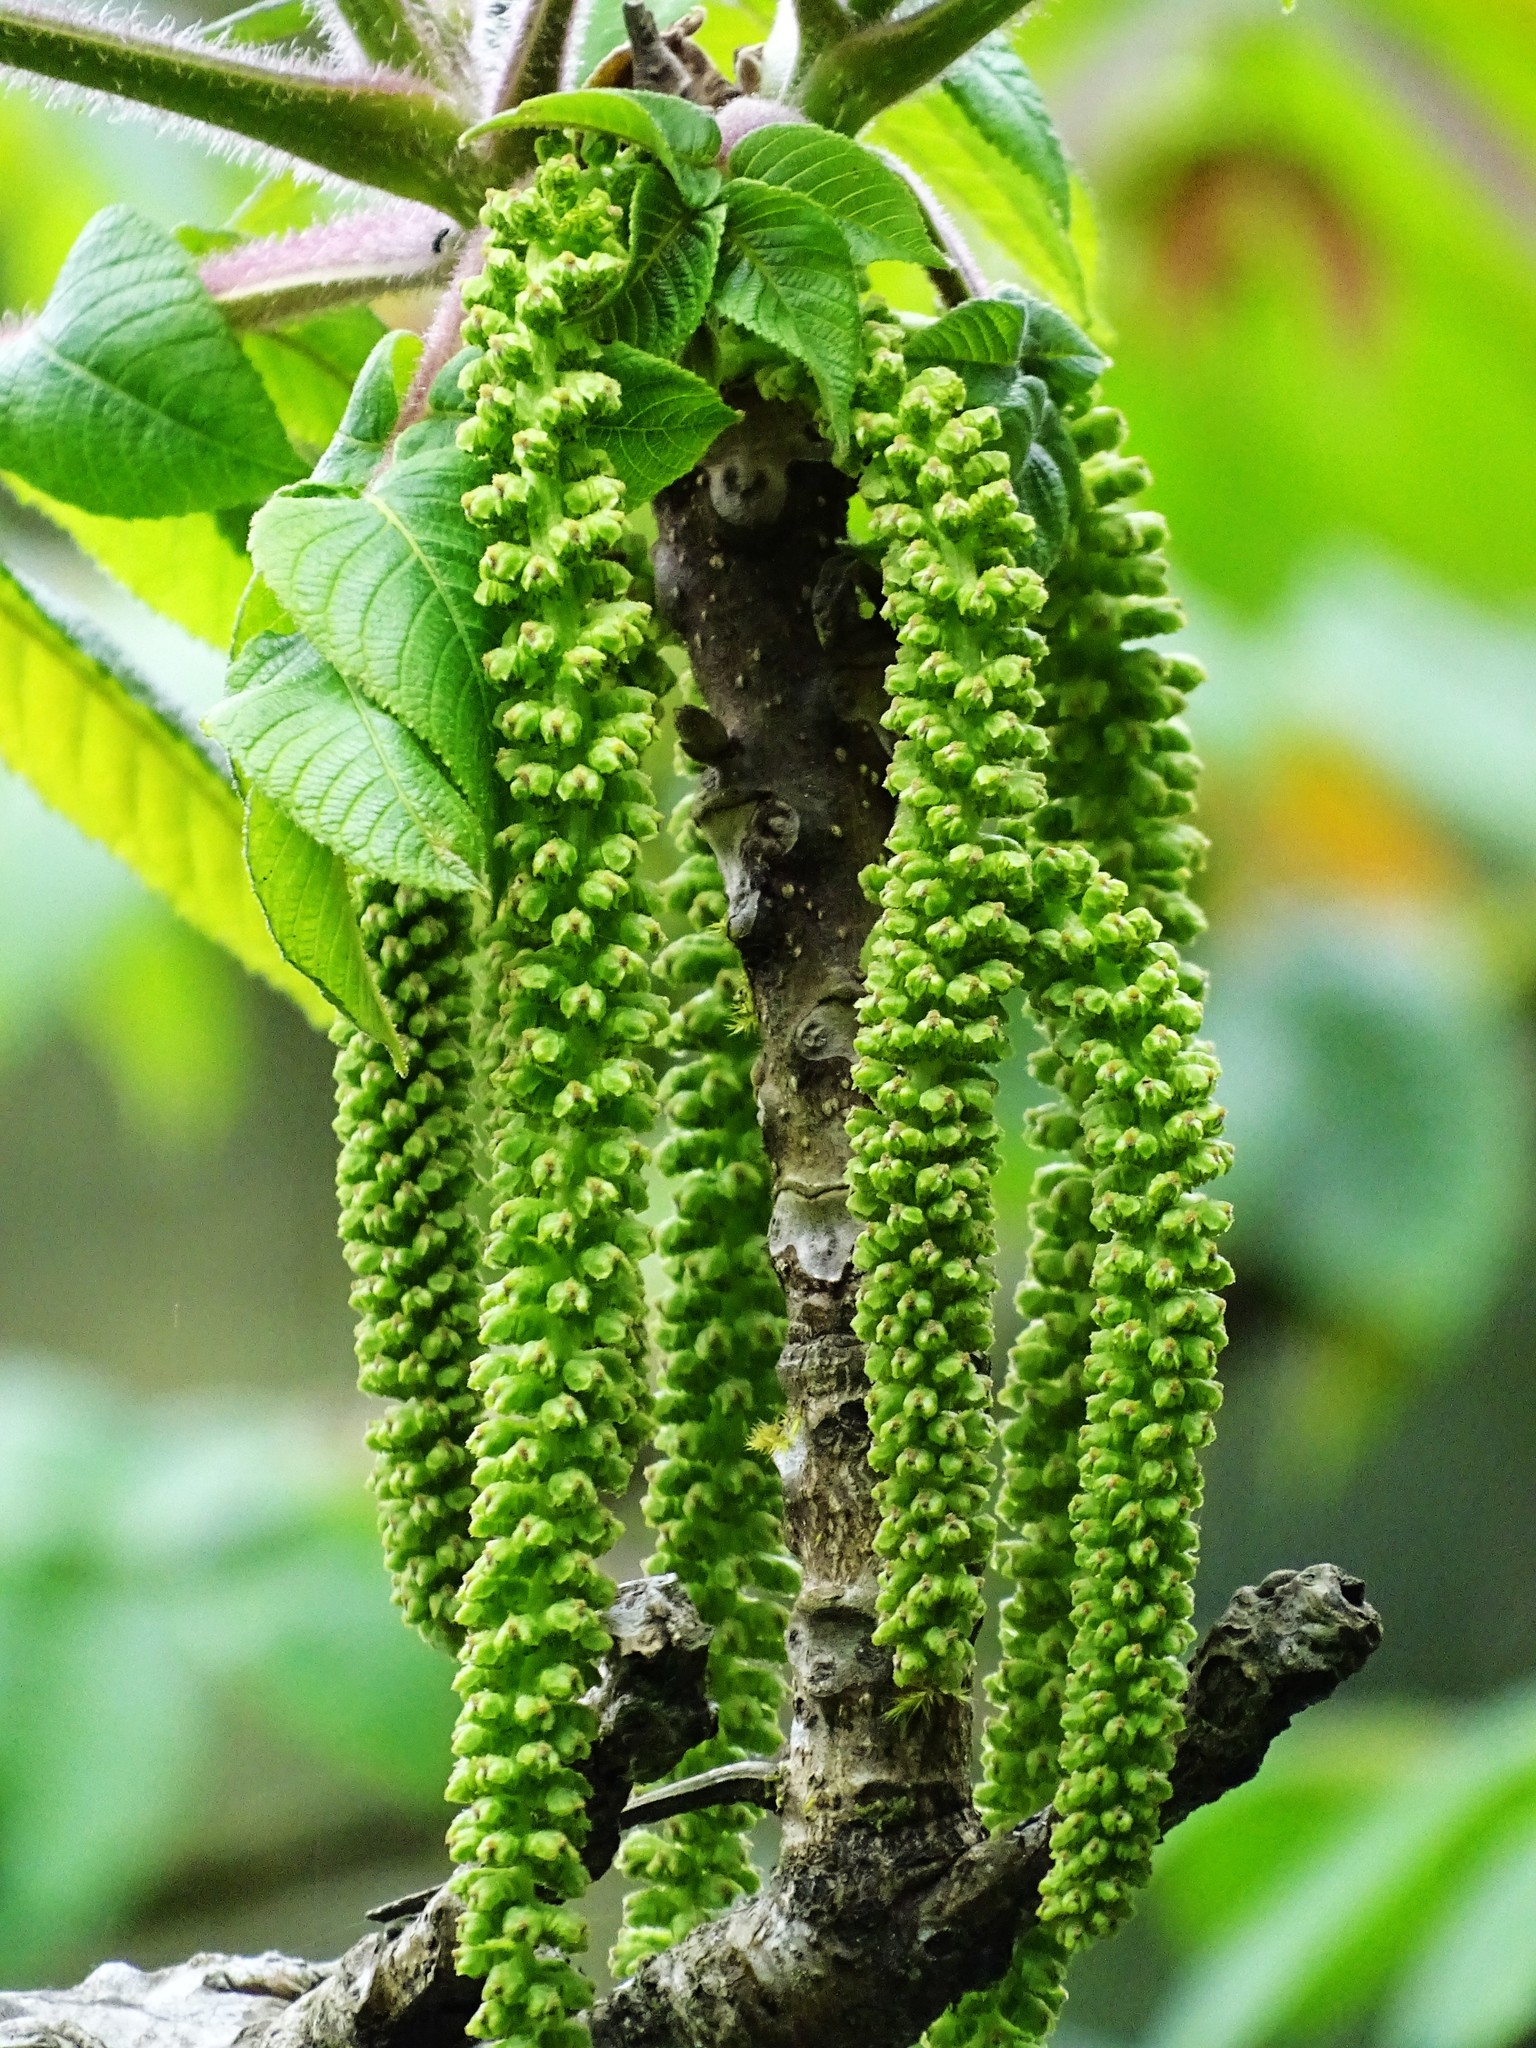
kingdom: Plantae
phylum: Tracheophyta
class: Magnoliopsida
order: Fagales
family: Juglandaceae
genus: Juglans
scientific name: Juglans mandshurica
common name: Manchurian walnut
